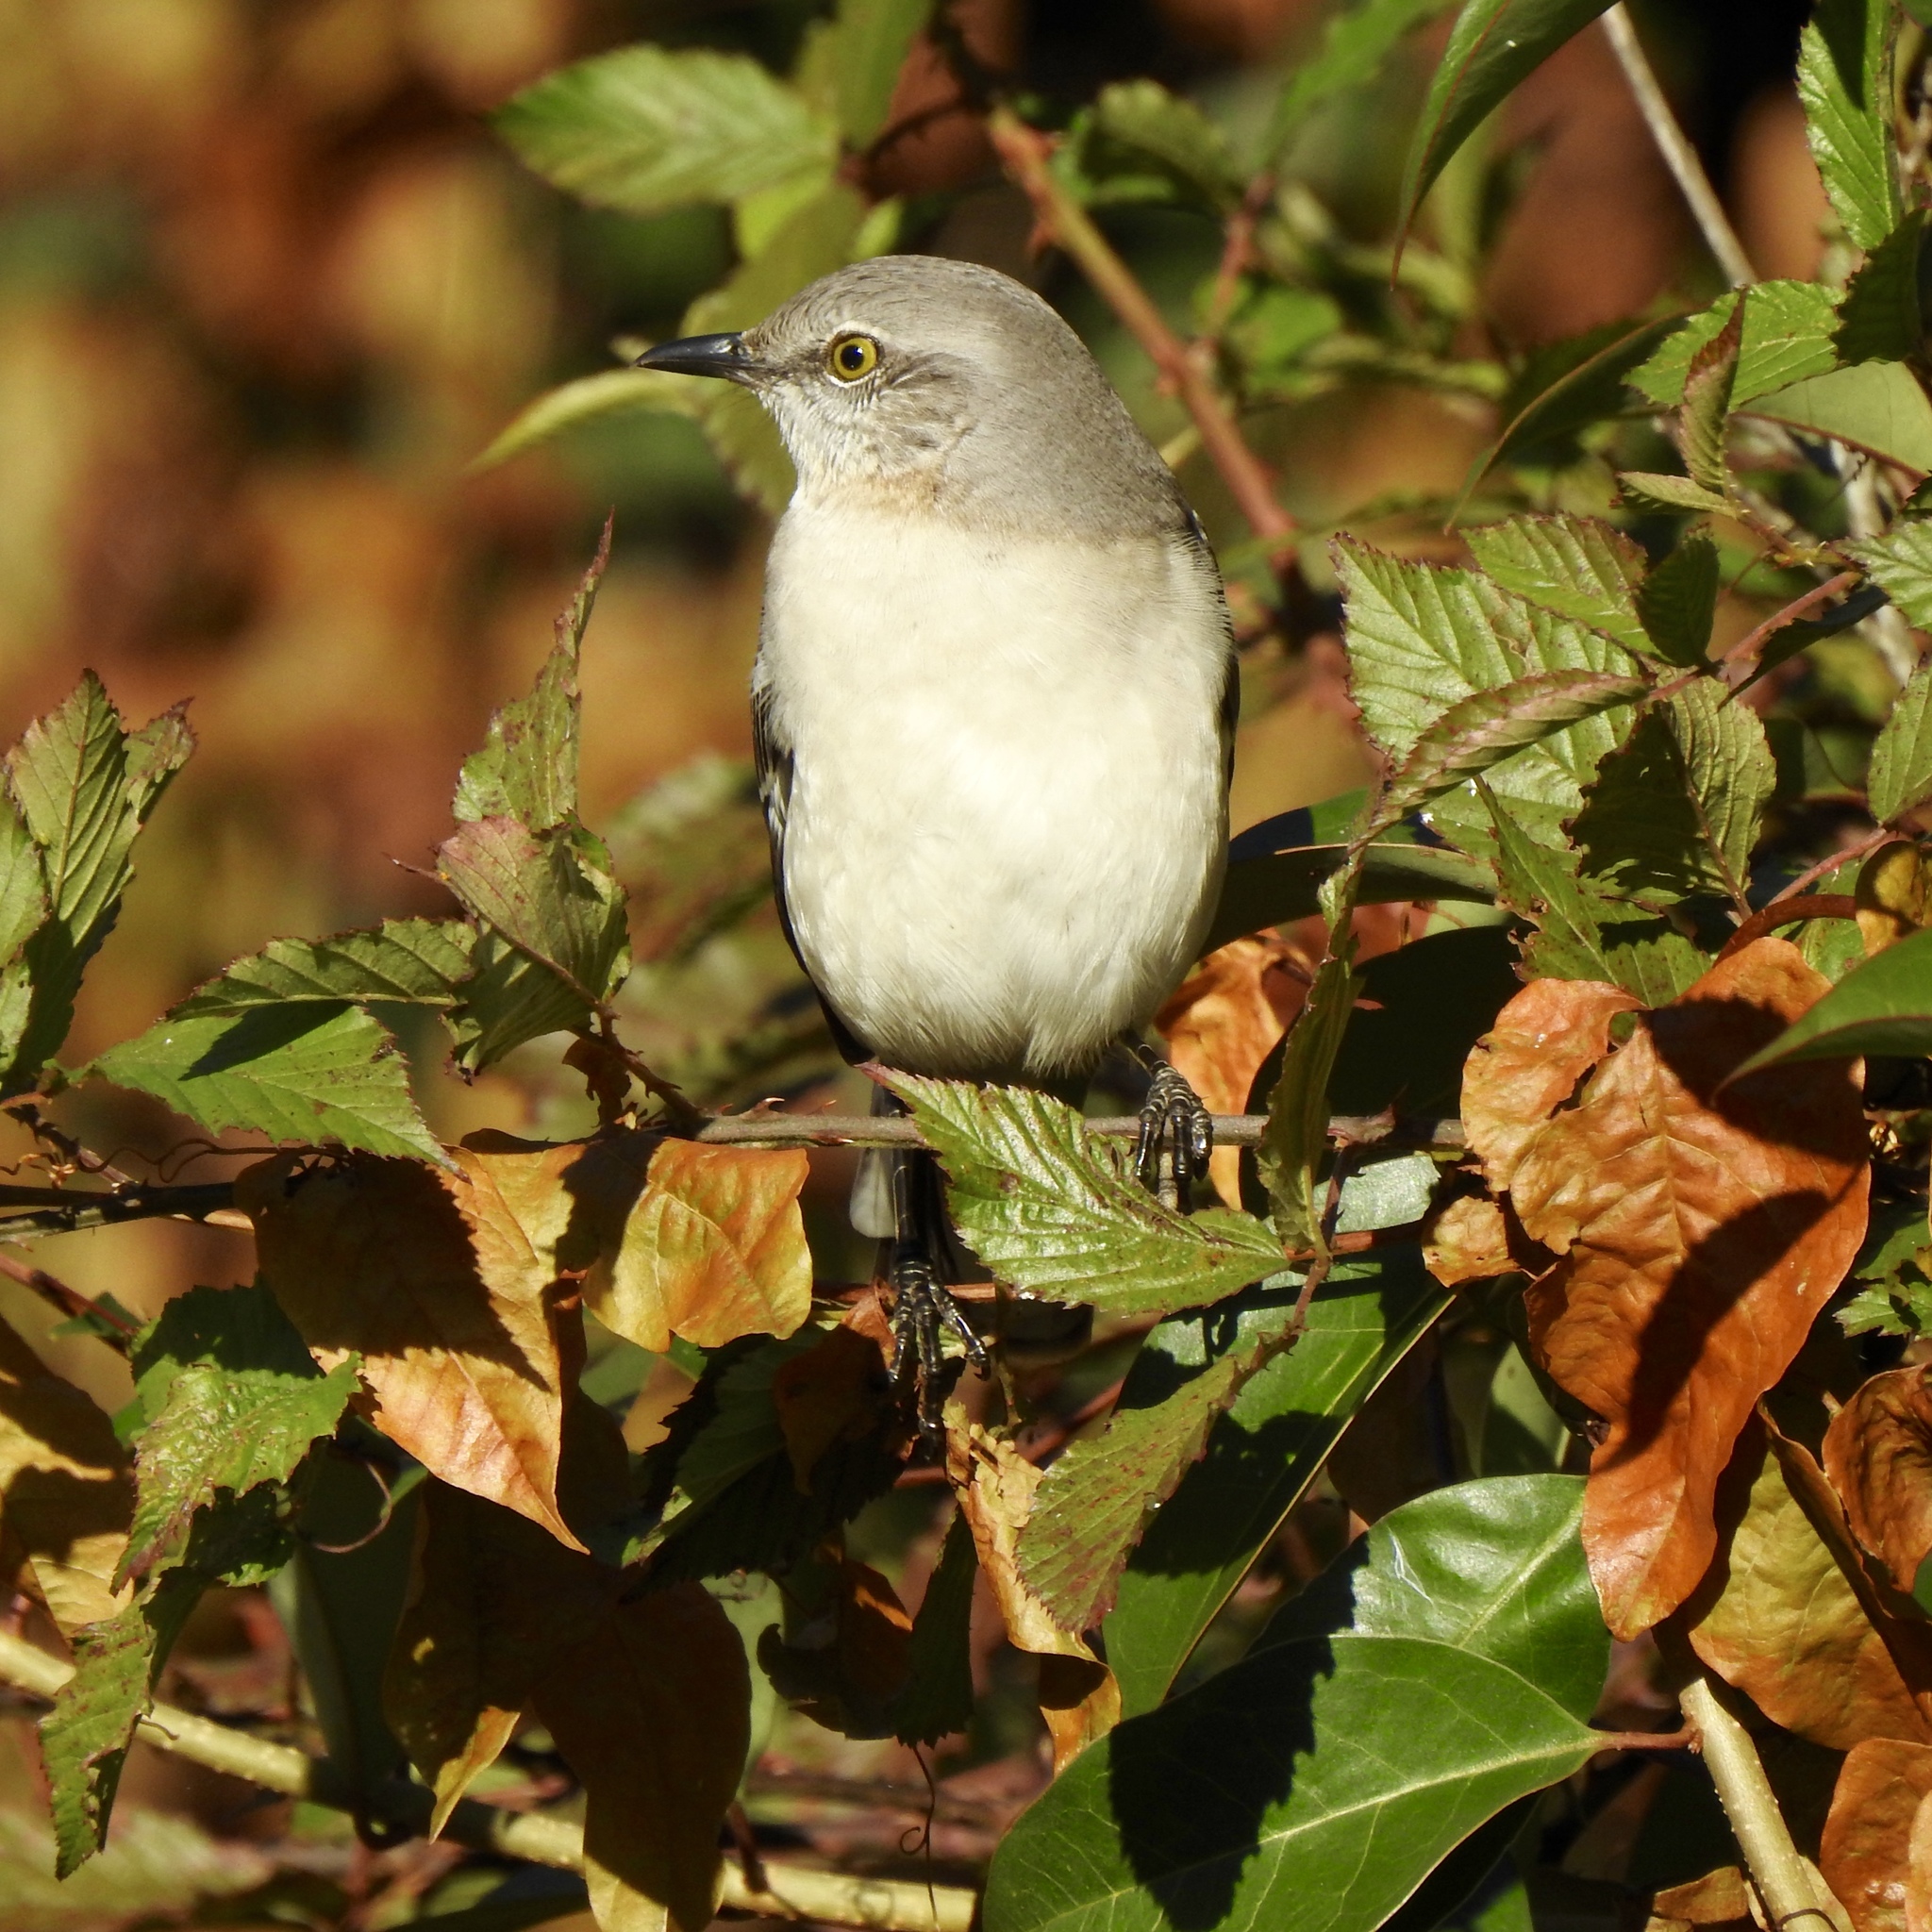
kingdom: Animalia
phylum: Chordata
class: Aves
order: Passeriformes
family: Mimidae
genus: Mimus
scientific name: Mimus polyglottos
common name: Northern mockingbird
